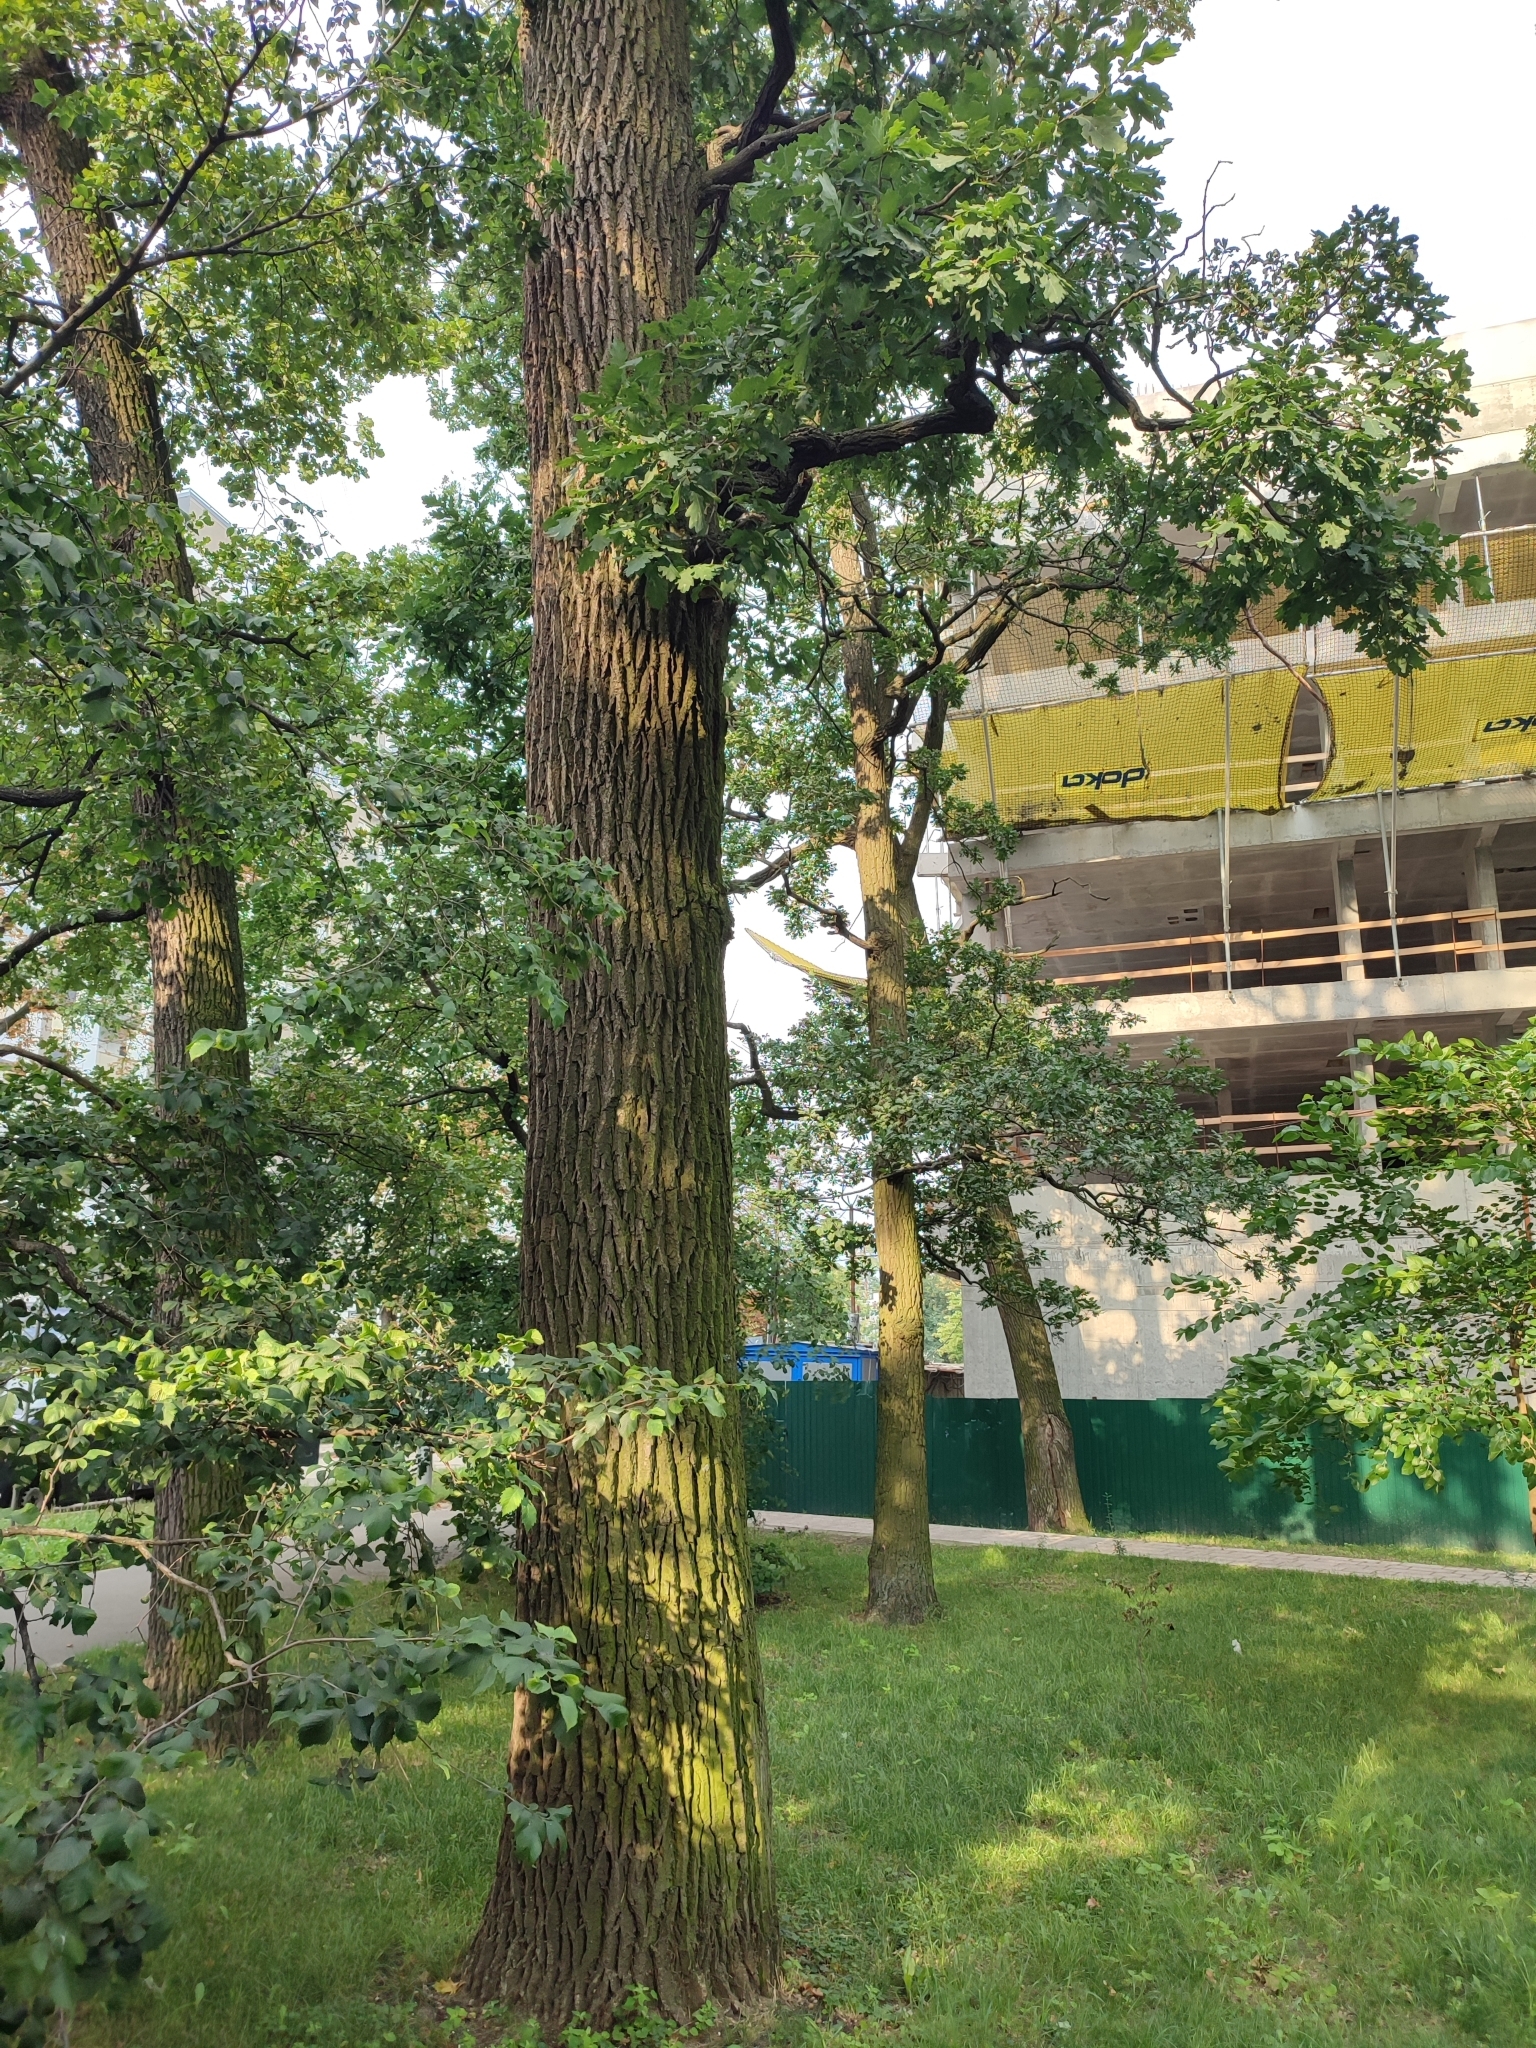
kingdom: Plantae
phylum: Tracheophyta
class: Magnoliopsida
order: Fagales
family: Fagaceae
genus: Quercus
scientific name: Quercus robur
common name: Pedunculate oak
